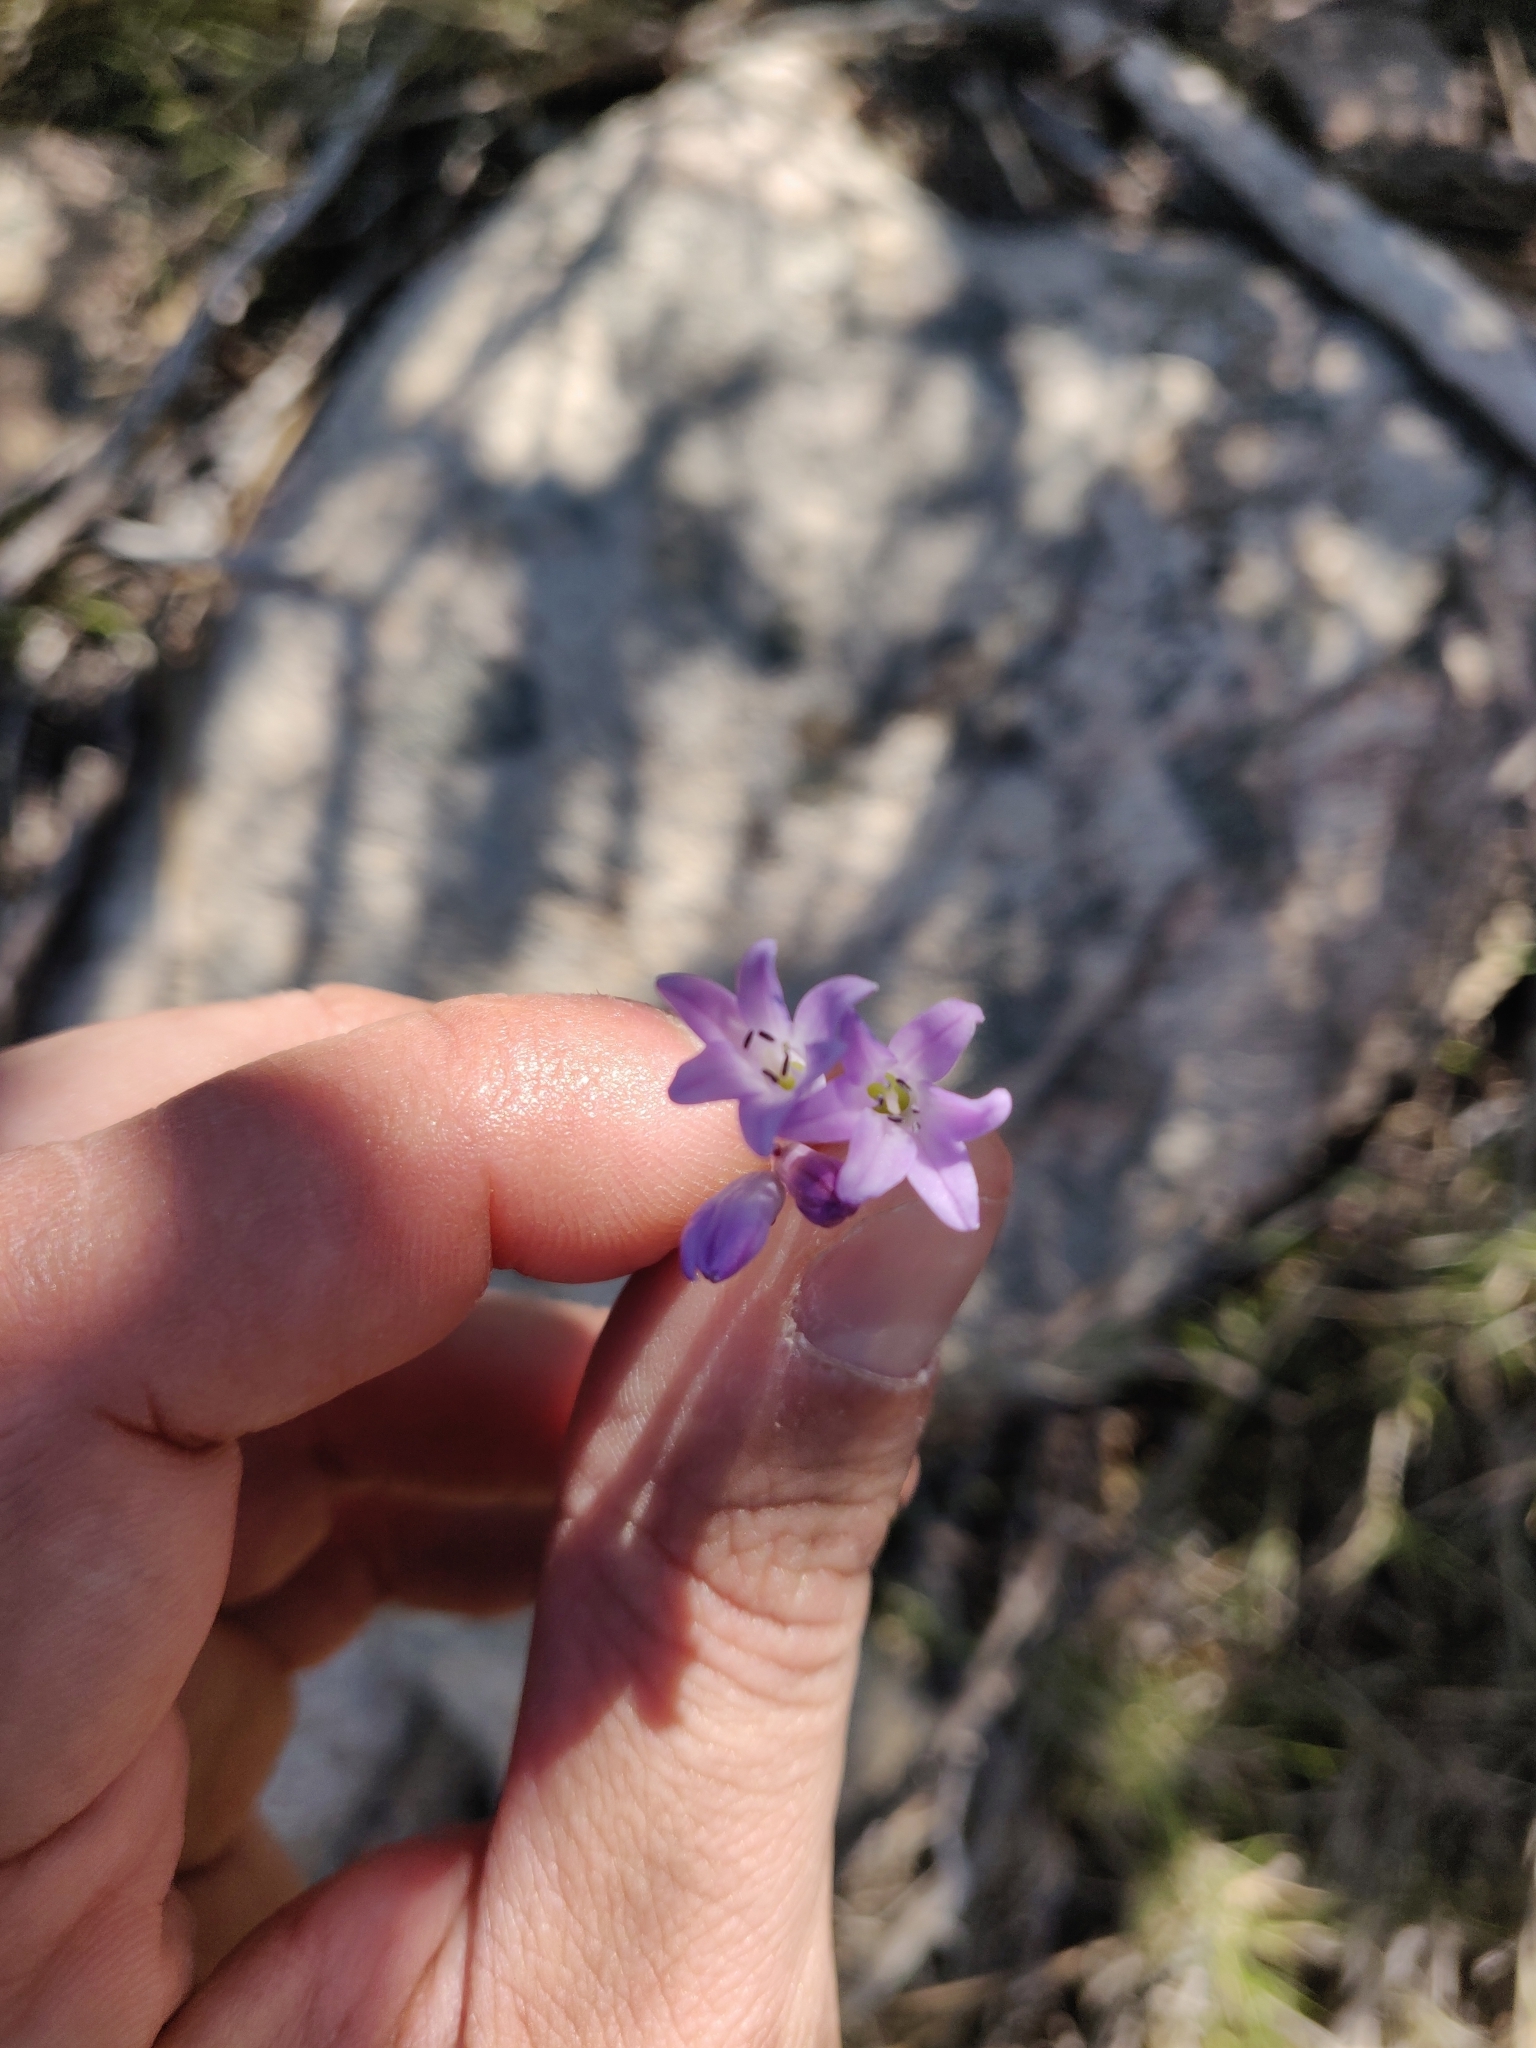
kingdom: Plantae
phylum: Tracheophyta
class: Liliopsida
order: Asparagales
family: Asparagaceae
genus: Brimeura
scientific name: Brimeura fastigiata
